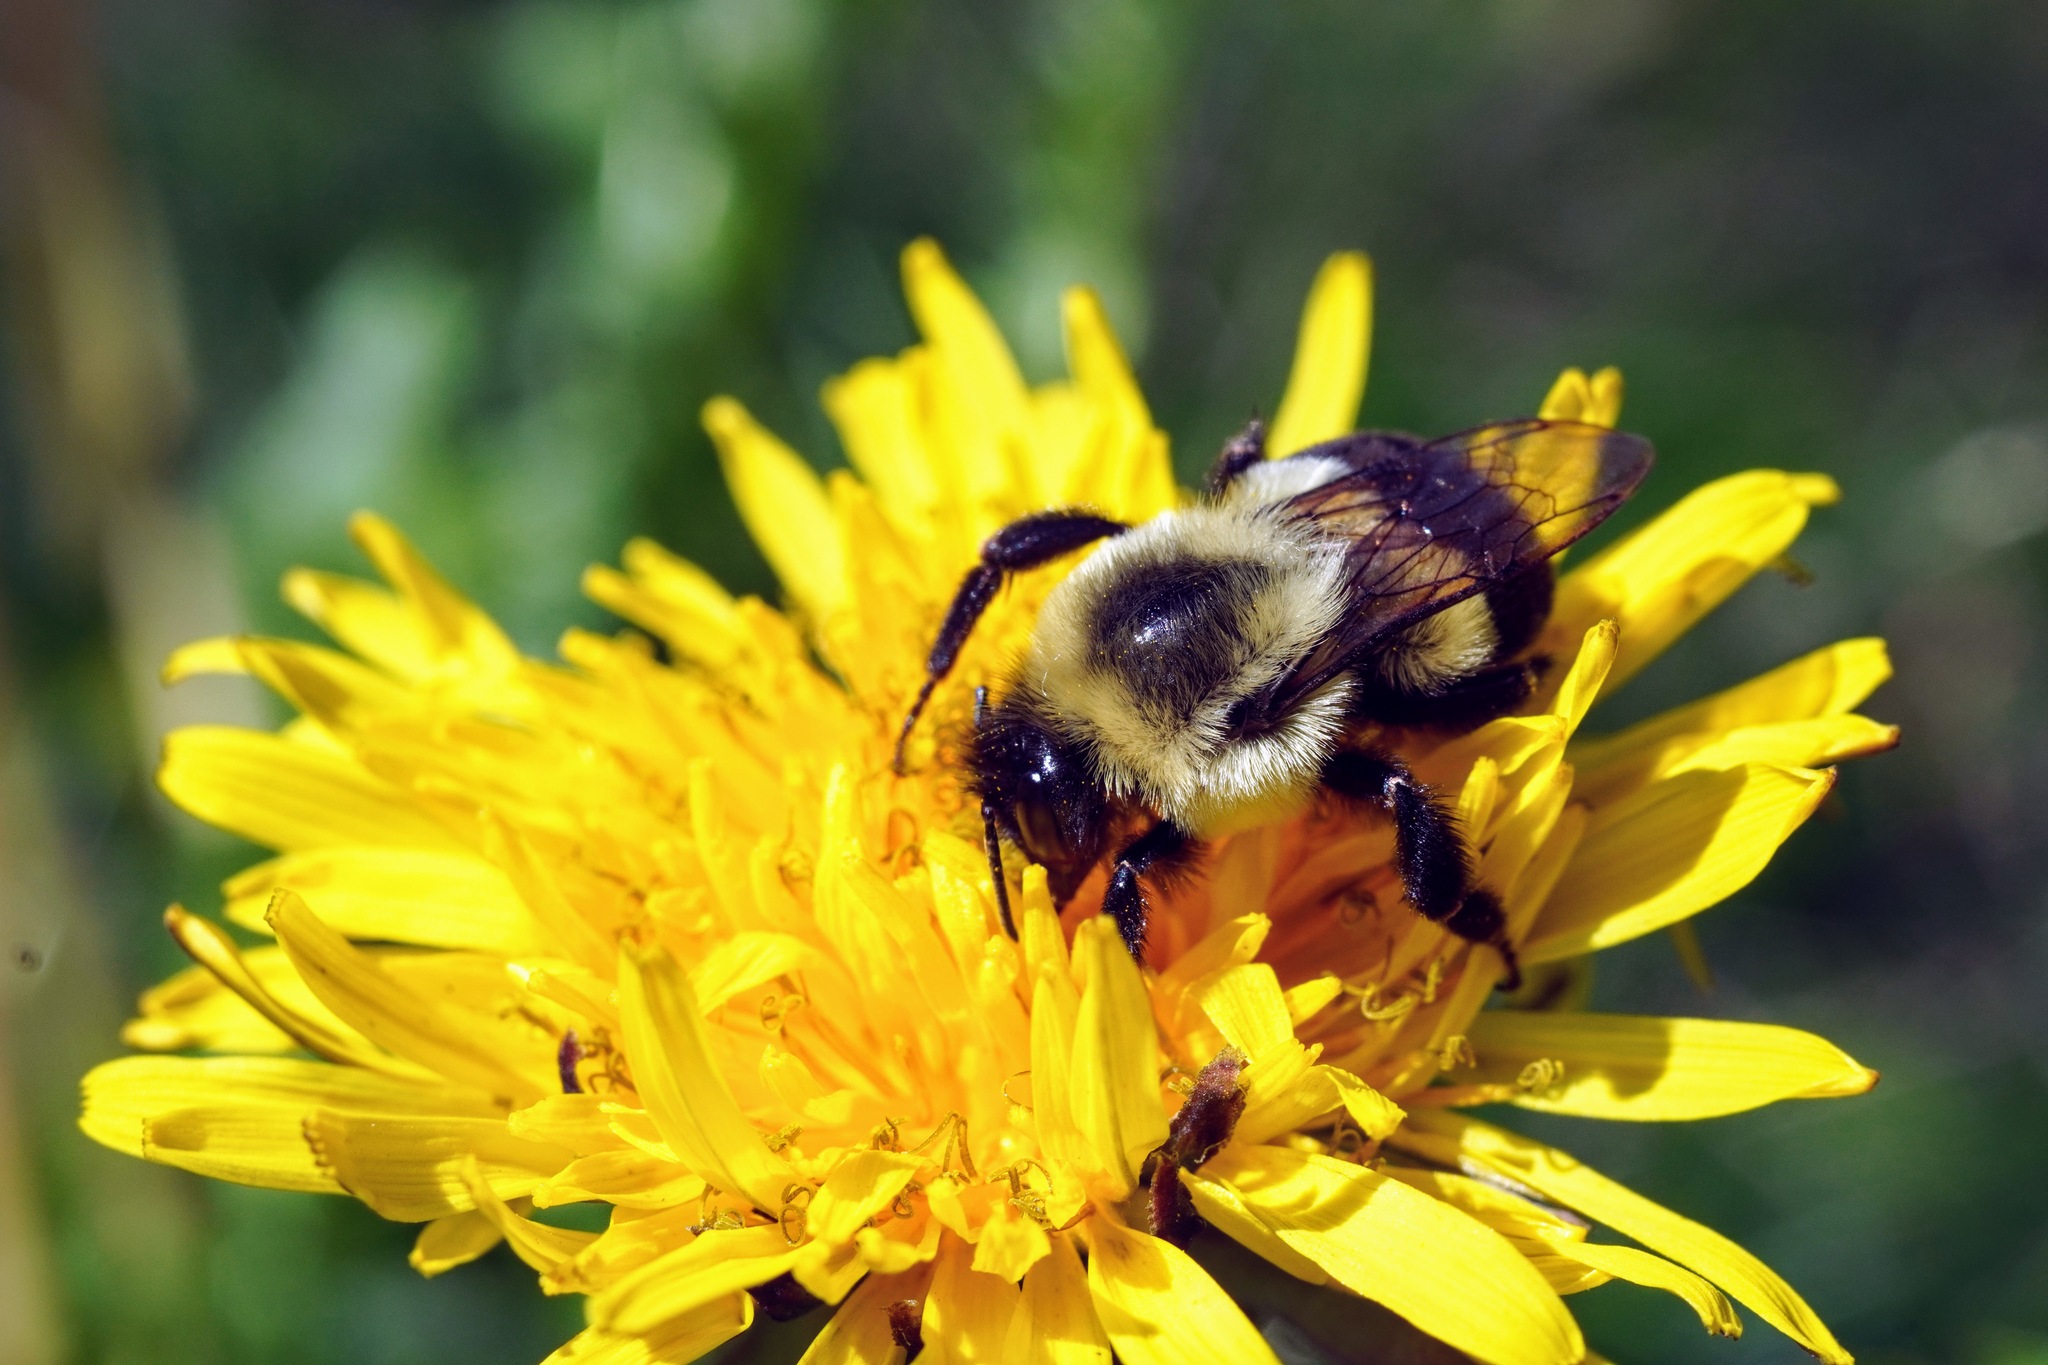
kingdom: Animalia
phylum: Arthropoda
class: Insecta
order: Hymenoptera
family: Apidae
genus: Bombus
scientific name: Bombus impatiens
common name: Common eastern bumble bee
